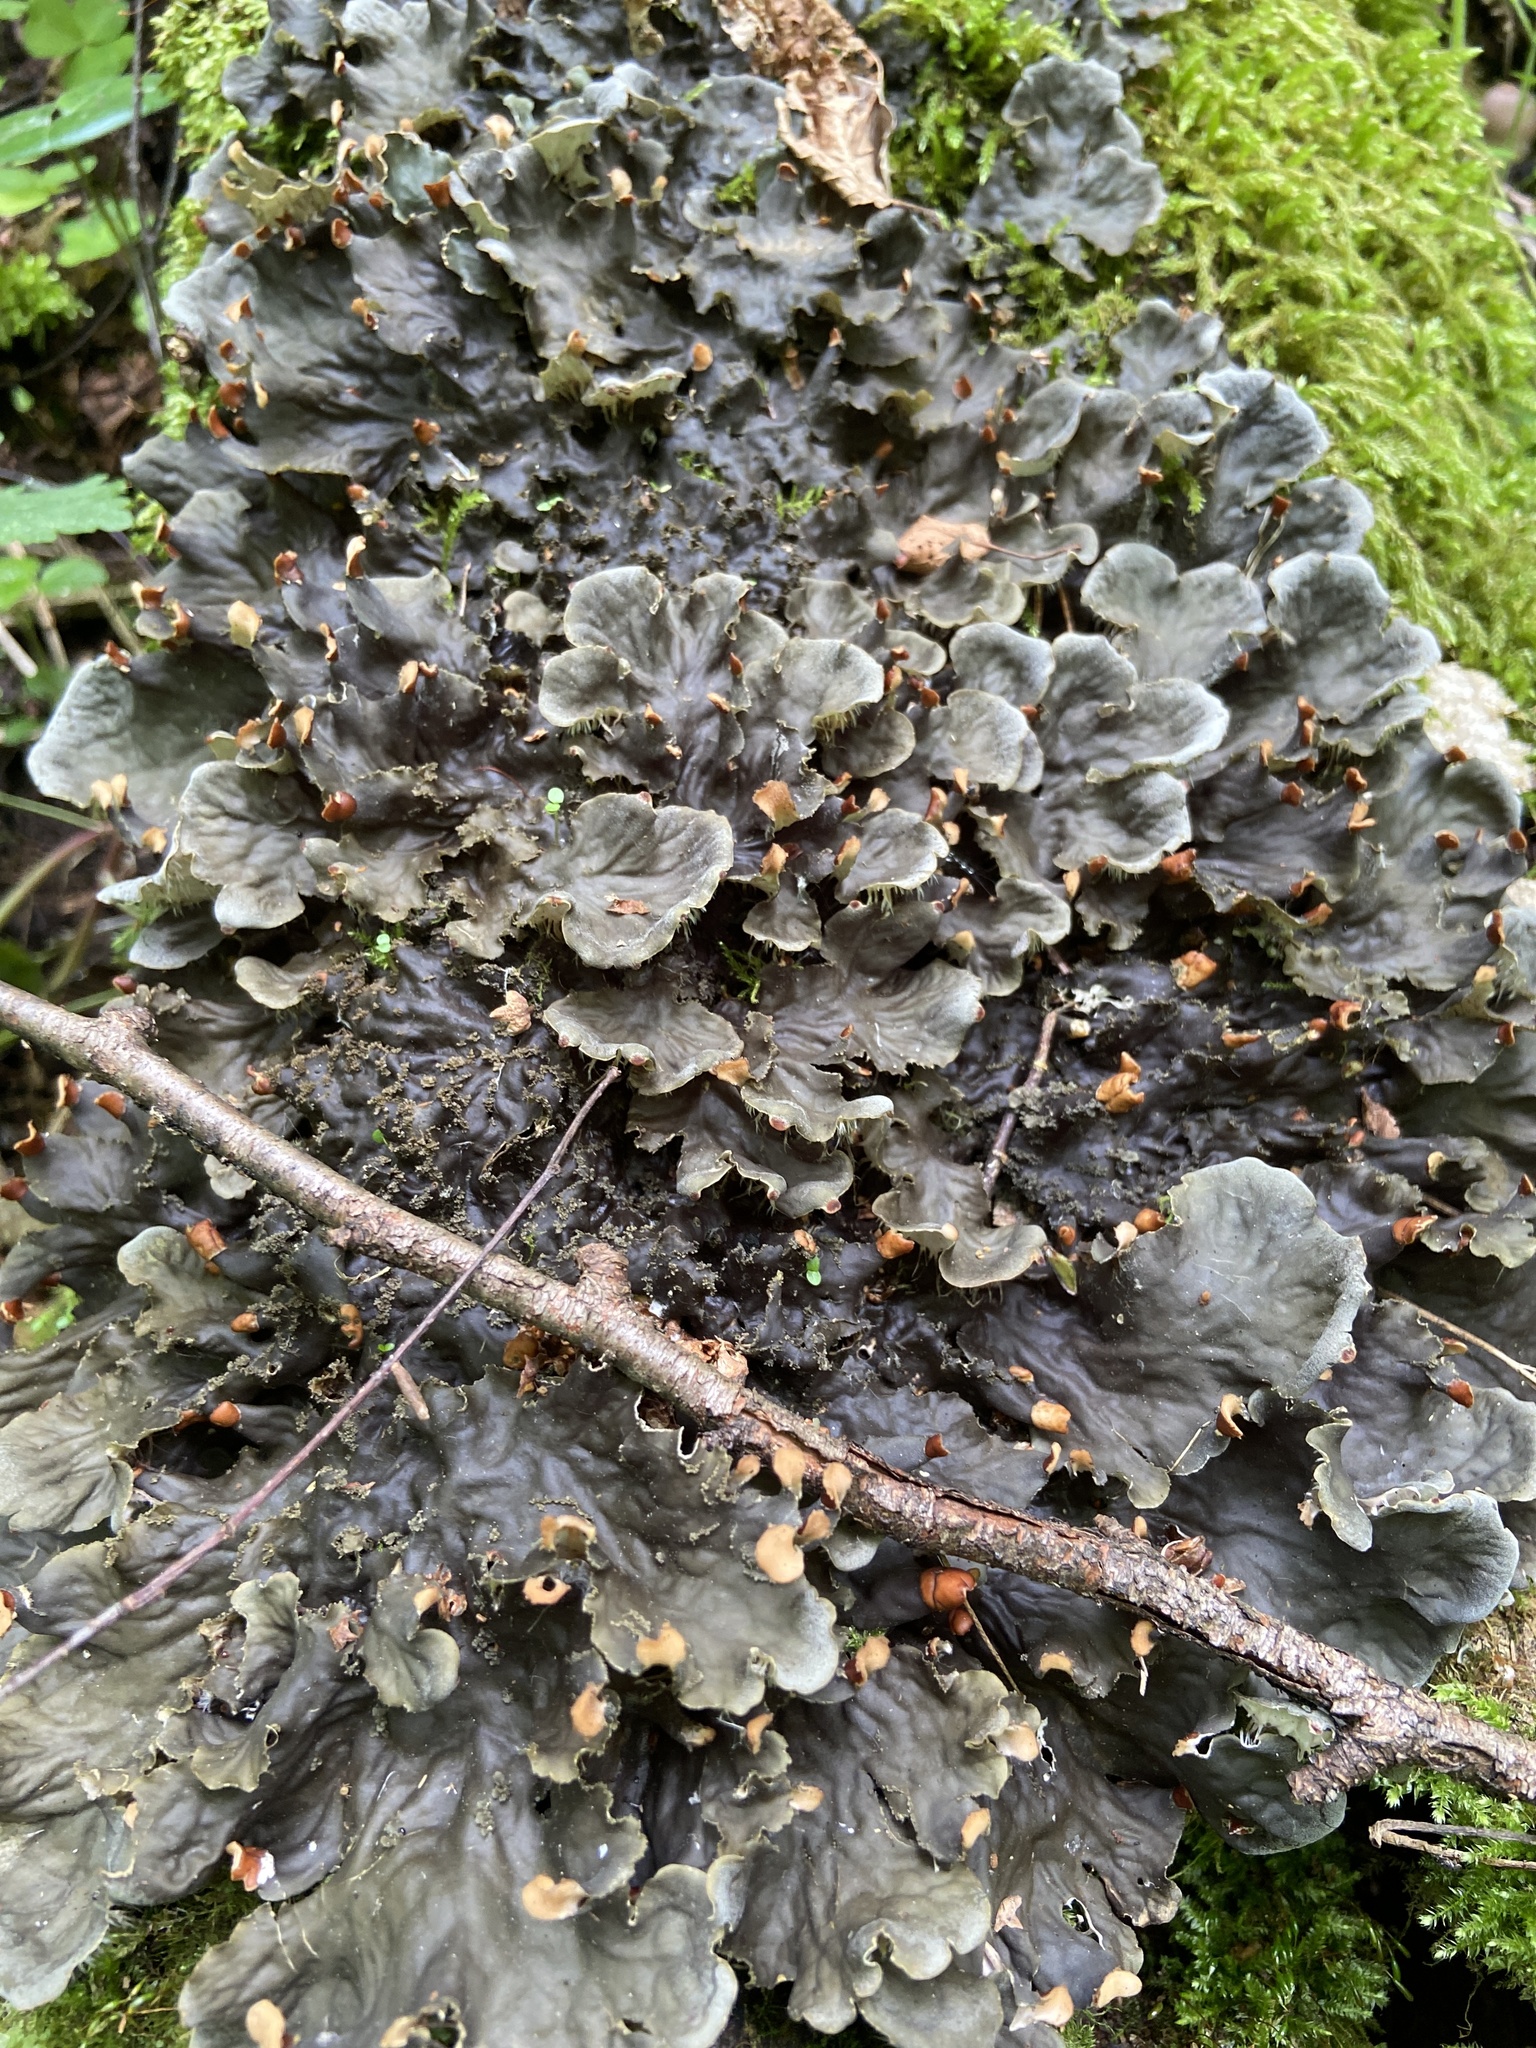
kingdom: Fungi
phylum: Ascomycota
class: Lecanoromycetes
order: Peltigerales
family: Peltigeraceae
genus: Peltigera
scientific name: Peltigera praetextata
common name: Scaly dog-lichen
